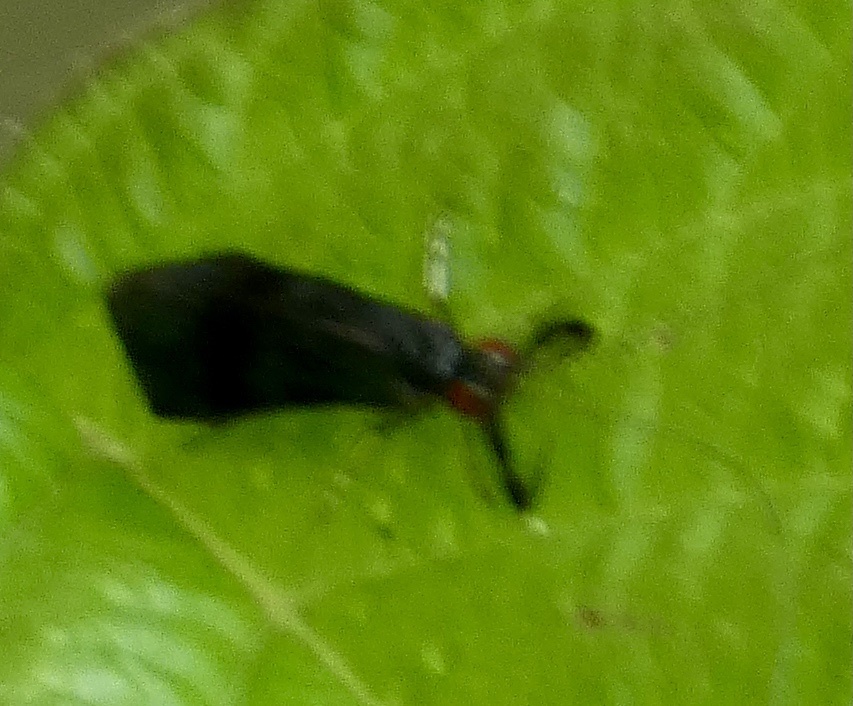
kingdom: Animalia
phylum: Arthropoda
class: Insecta
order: Trichoptera
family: Leptoceridae
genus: Mystacides
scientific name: Mystacides azureus
